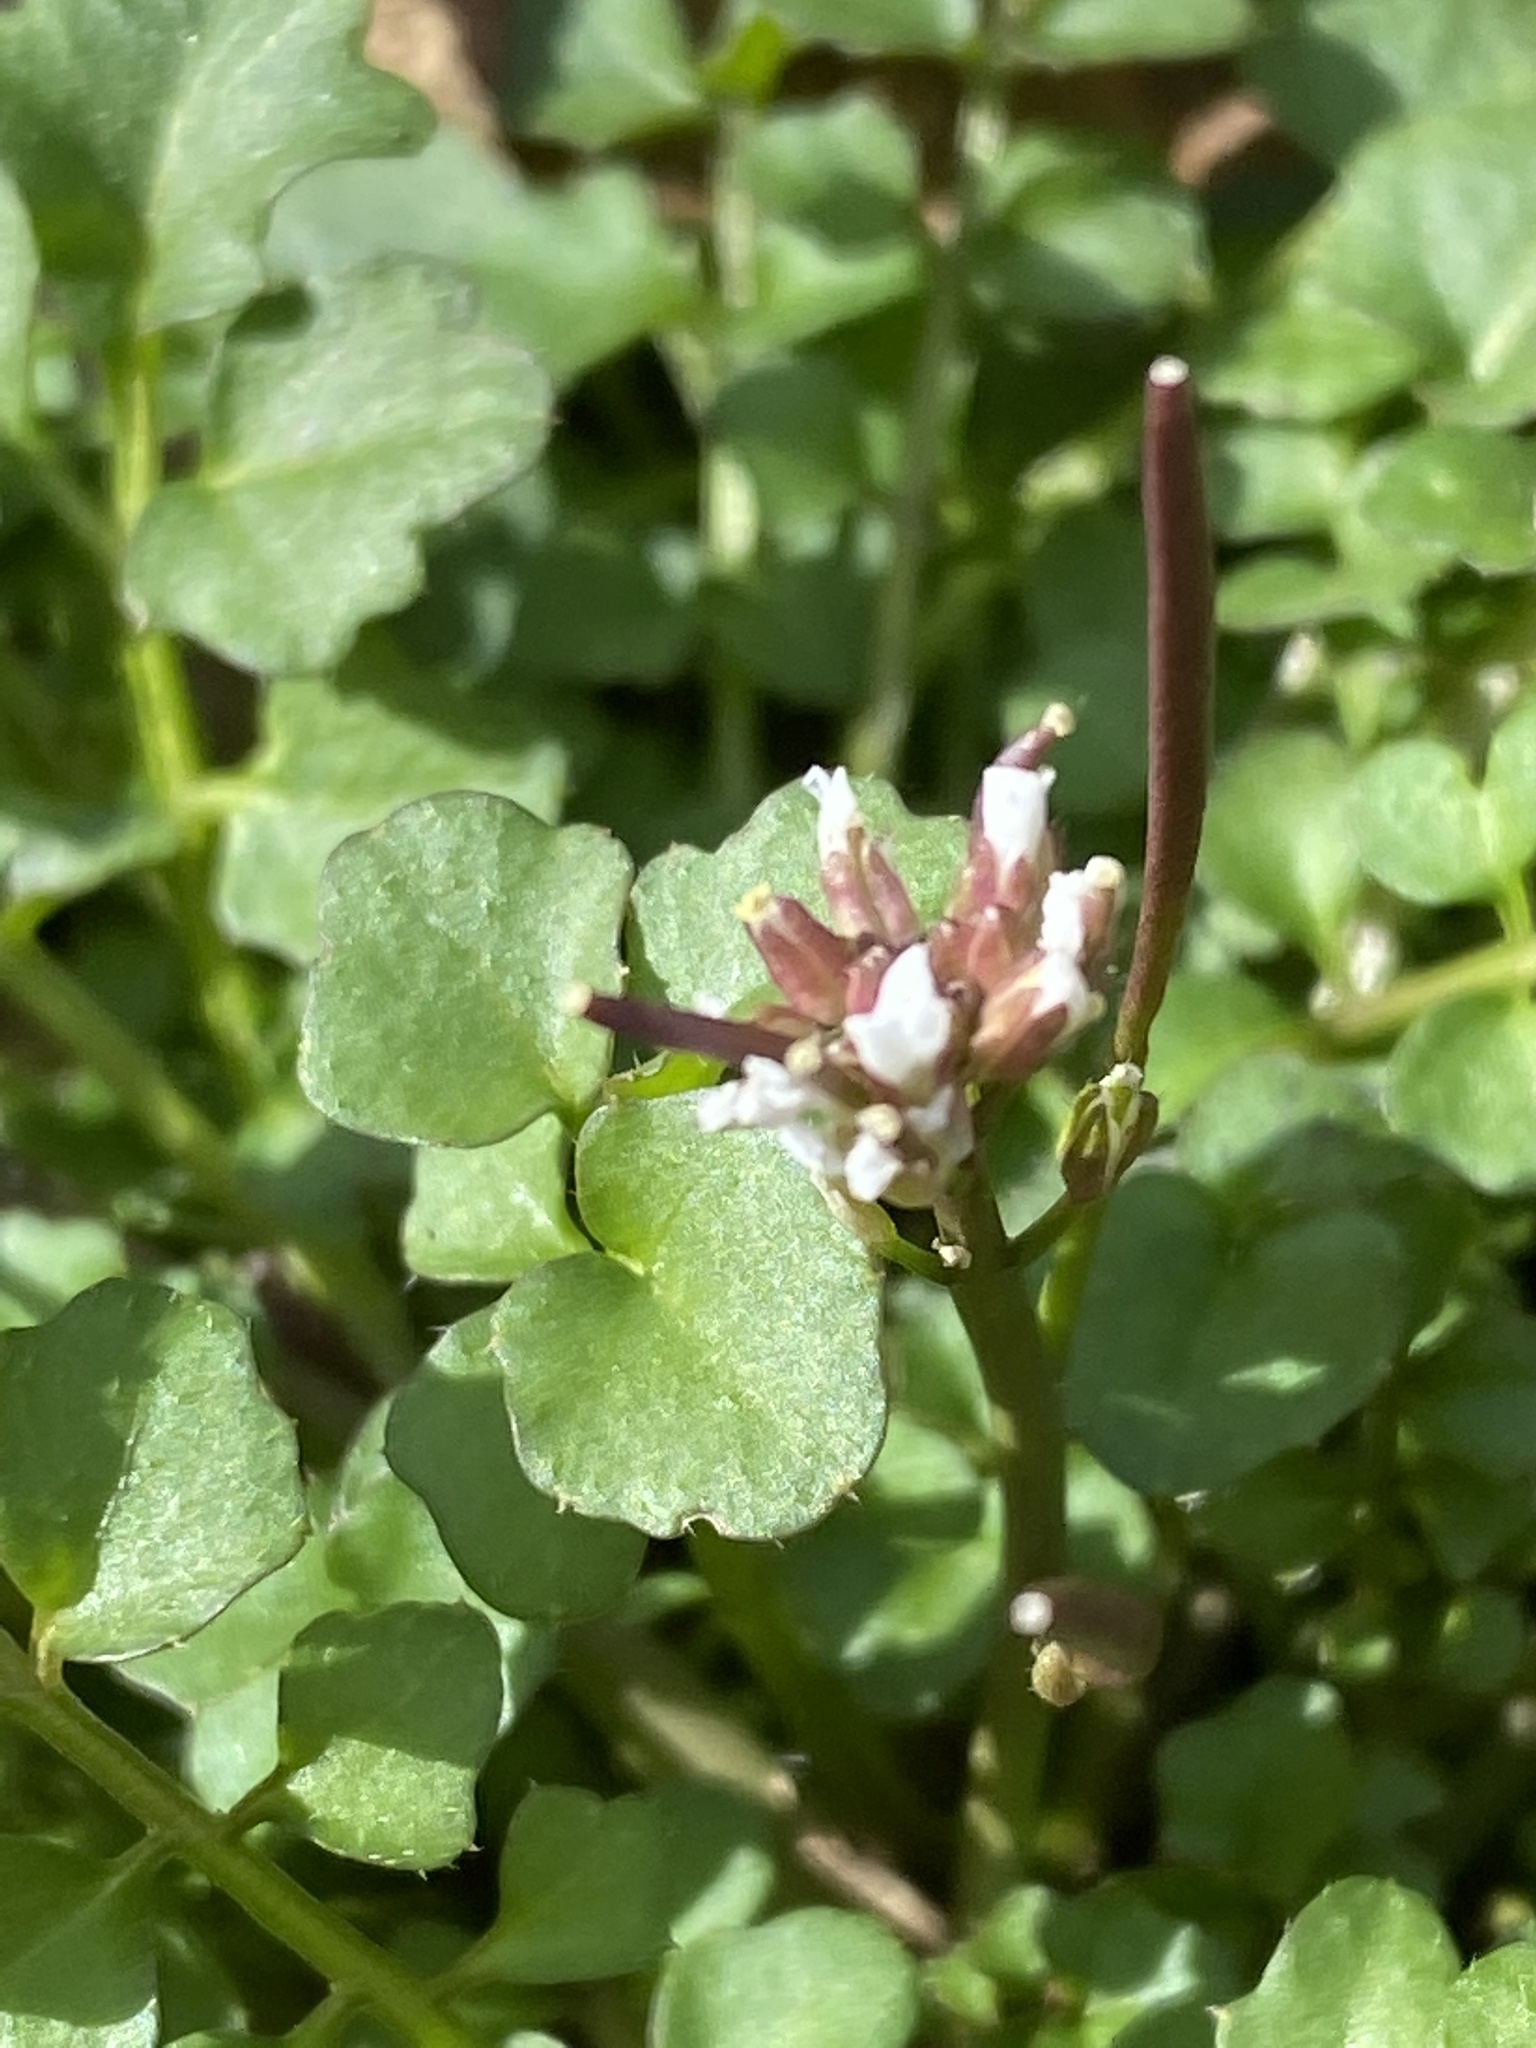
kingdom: Plantae
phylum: Tracheophyta
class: Magnoliopsida
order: Brassicales
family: Brassicaceae
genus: Cardamine
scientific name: Cardamine hirsuta
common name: Hairy bittercress
